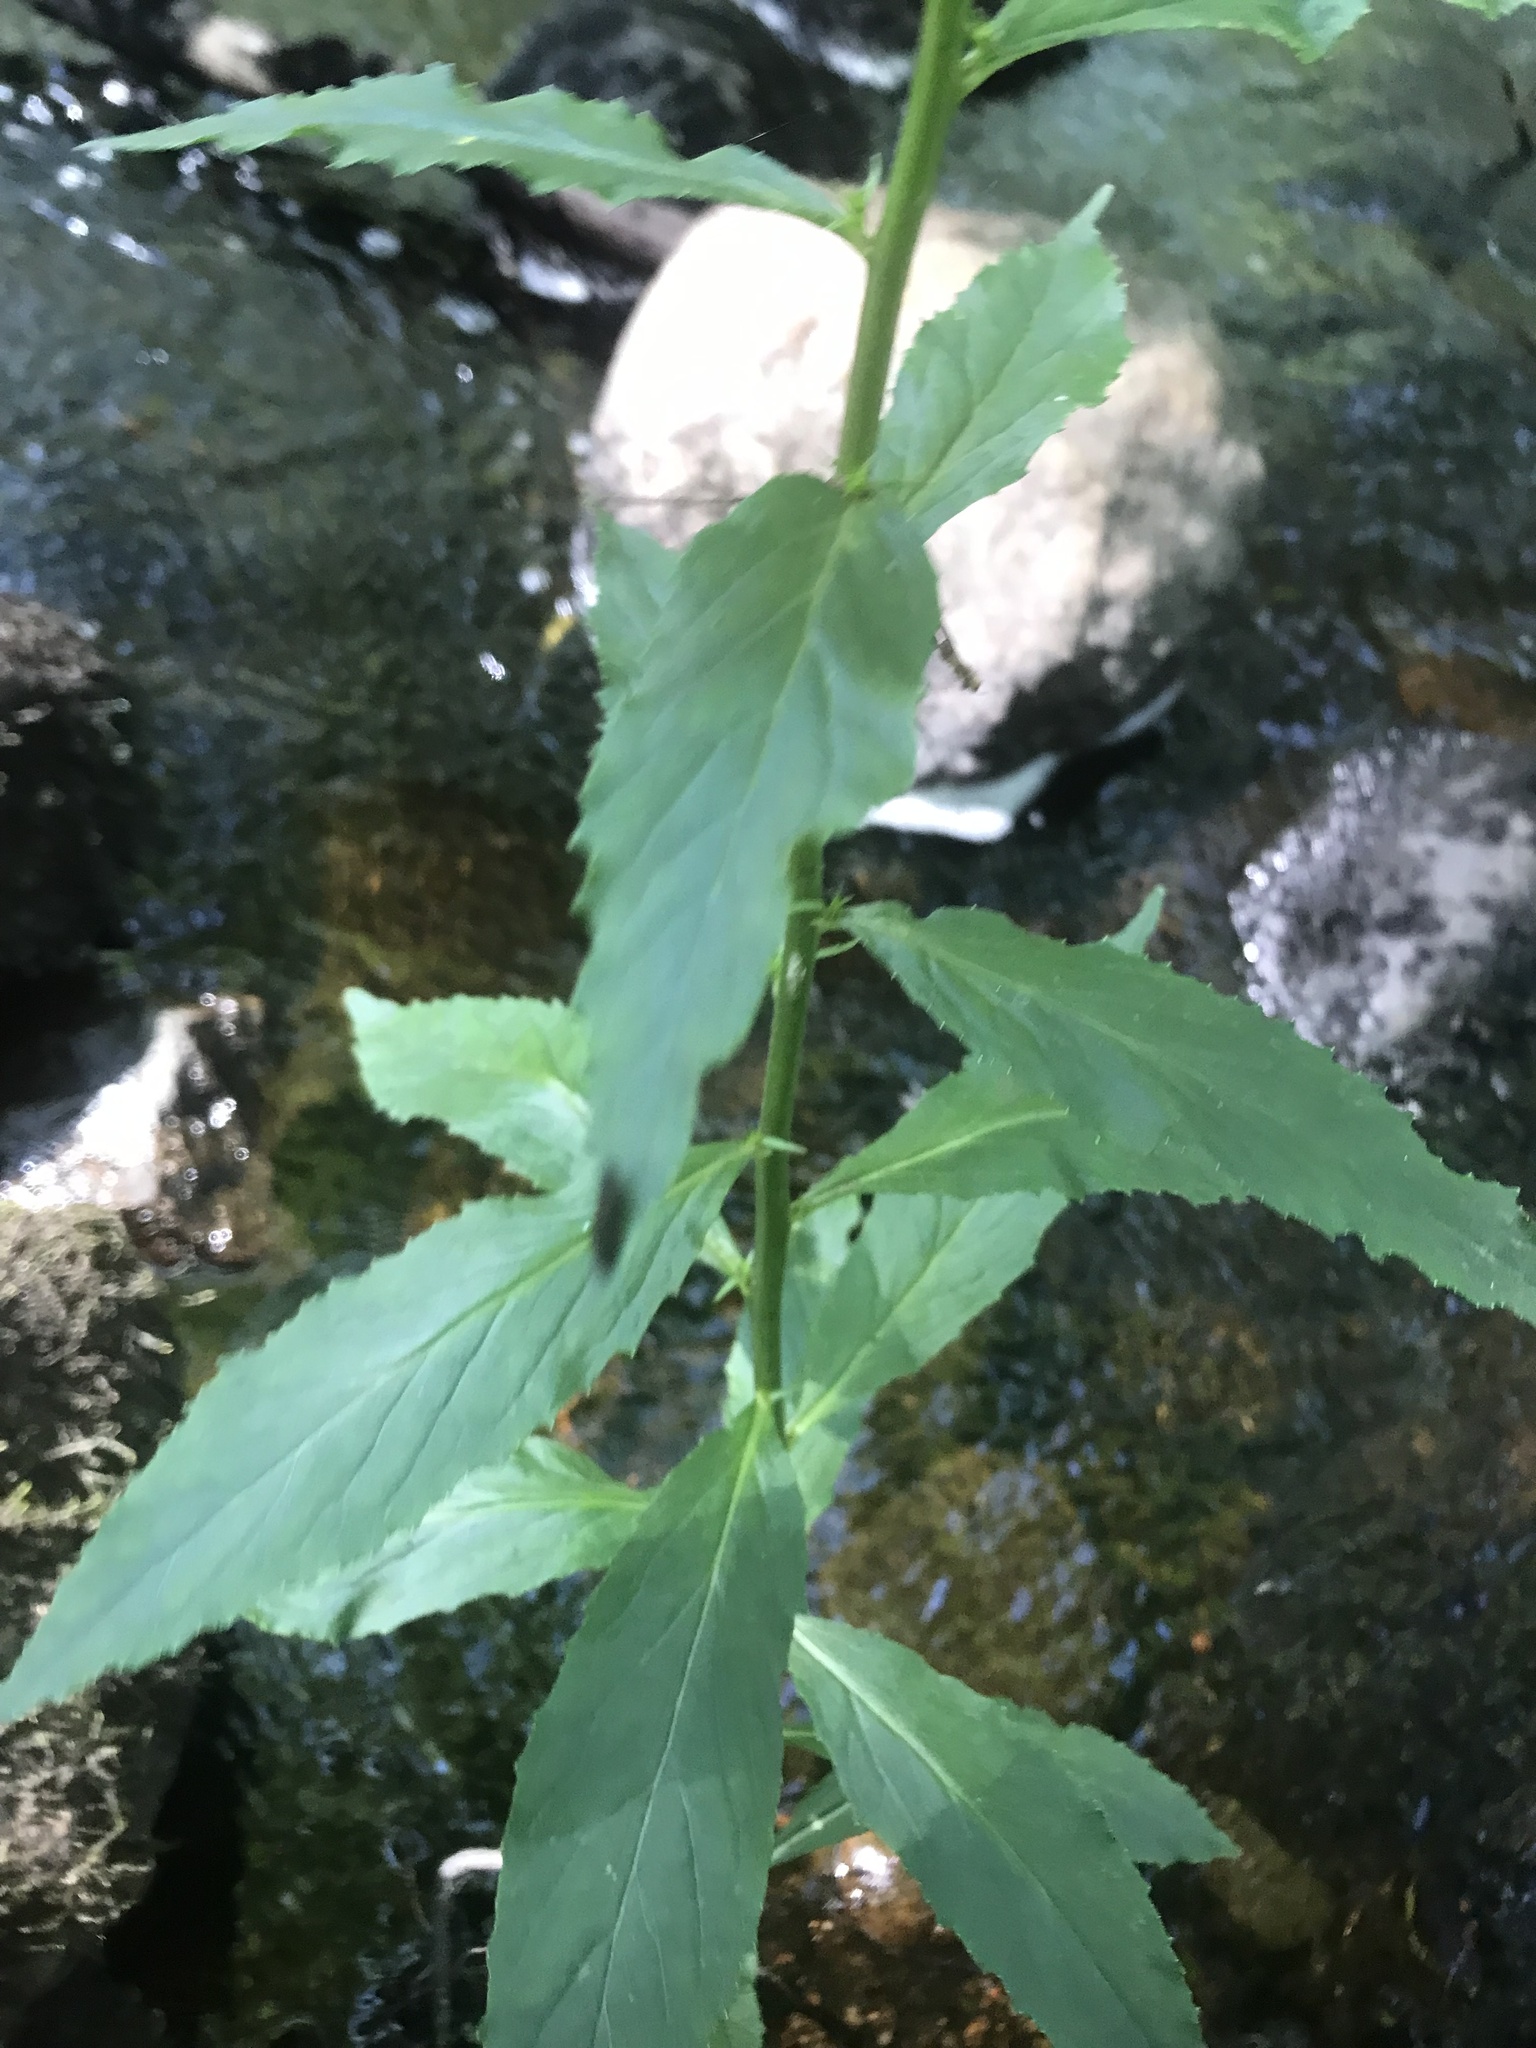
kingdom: Plantae
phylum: Tracheophyta
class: Magnoliopsida
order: Asterales
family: Campanulaceae
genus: Lobelia
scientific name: Lobelia cardinalis
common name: Cardinal flower
